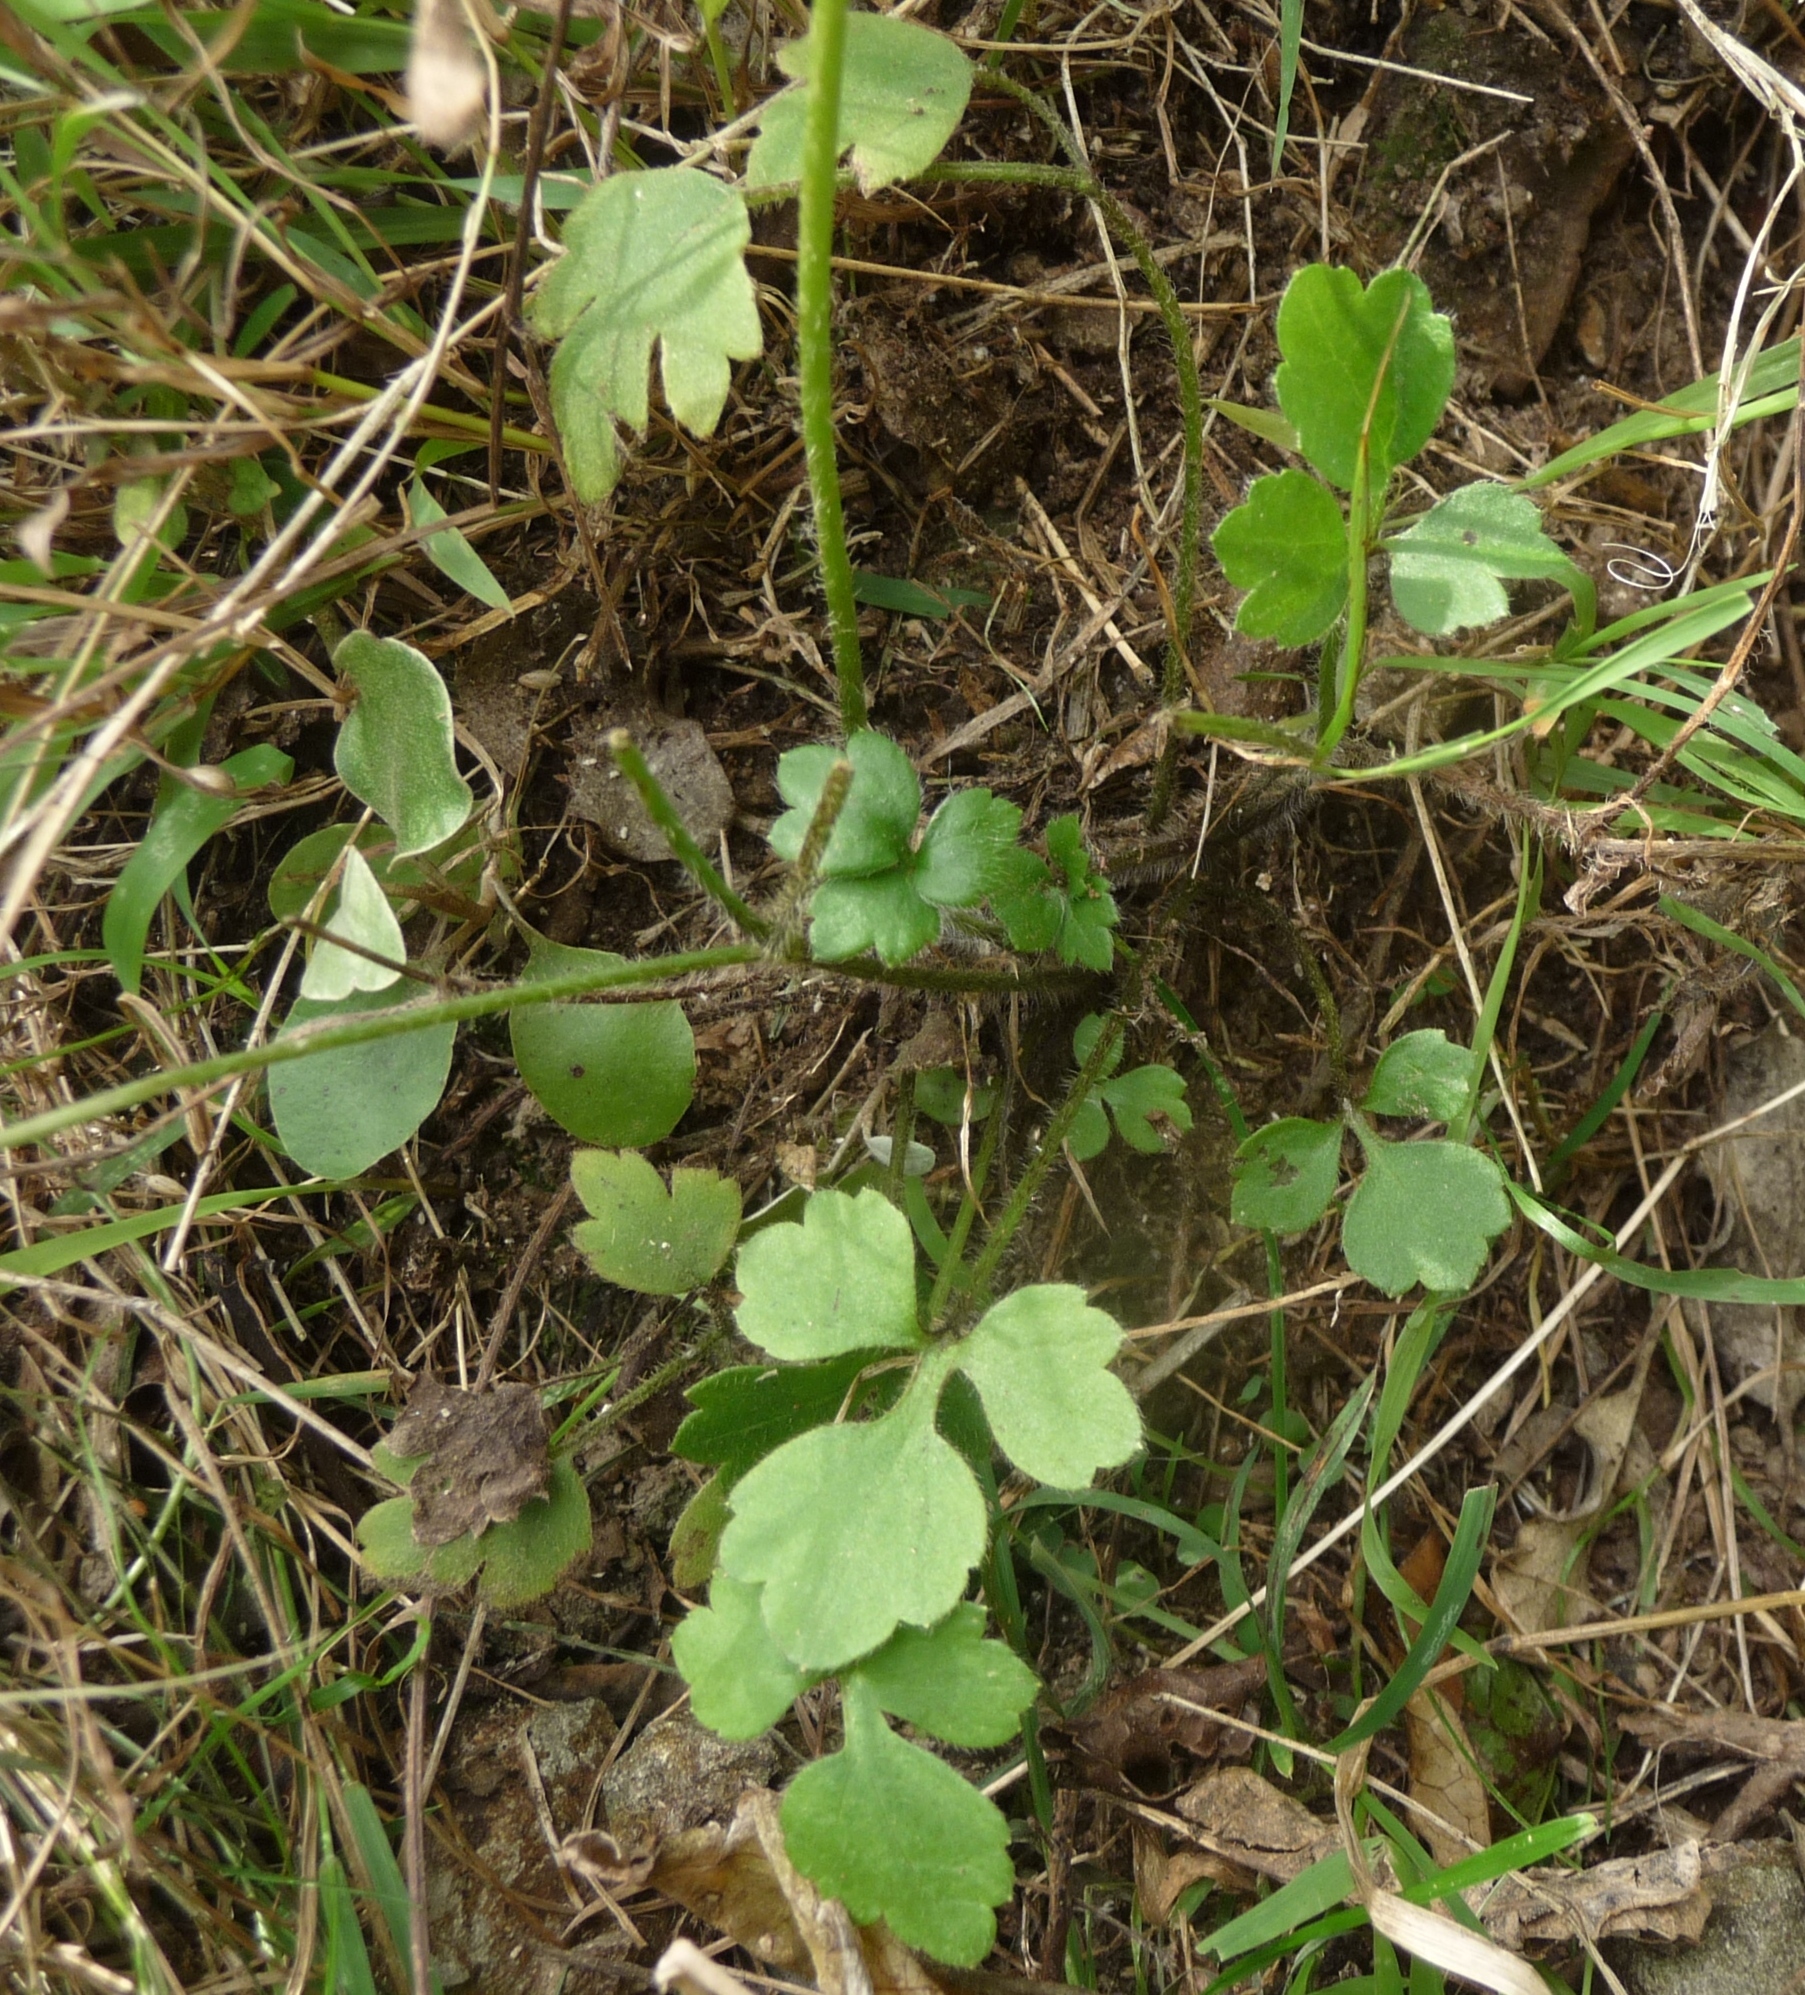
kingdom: Plantae
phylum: Tracheophyta
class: Magnoliopsida
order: Ranunculales
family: Ranunculaceae
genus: Ranunculus
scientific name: Ranunculus reflexus
